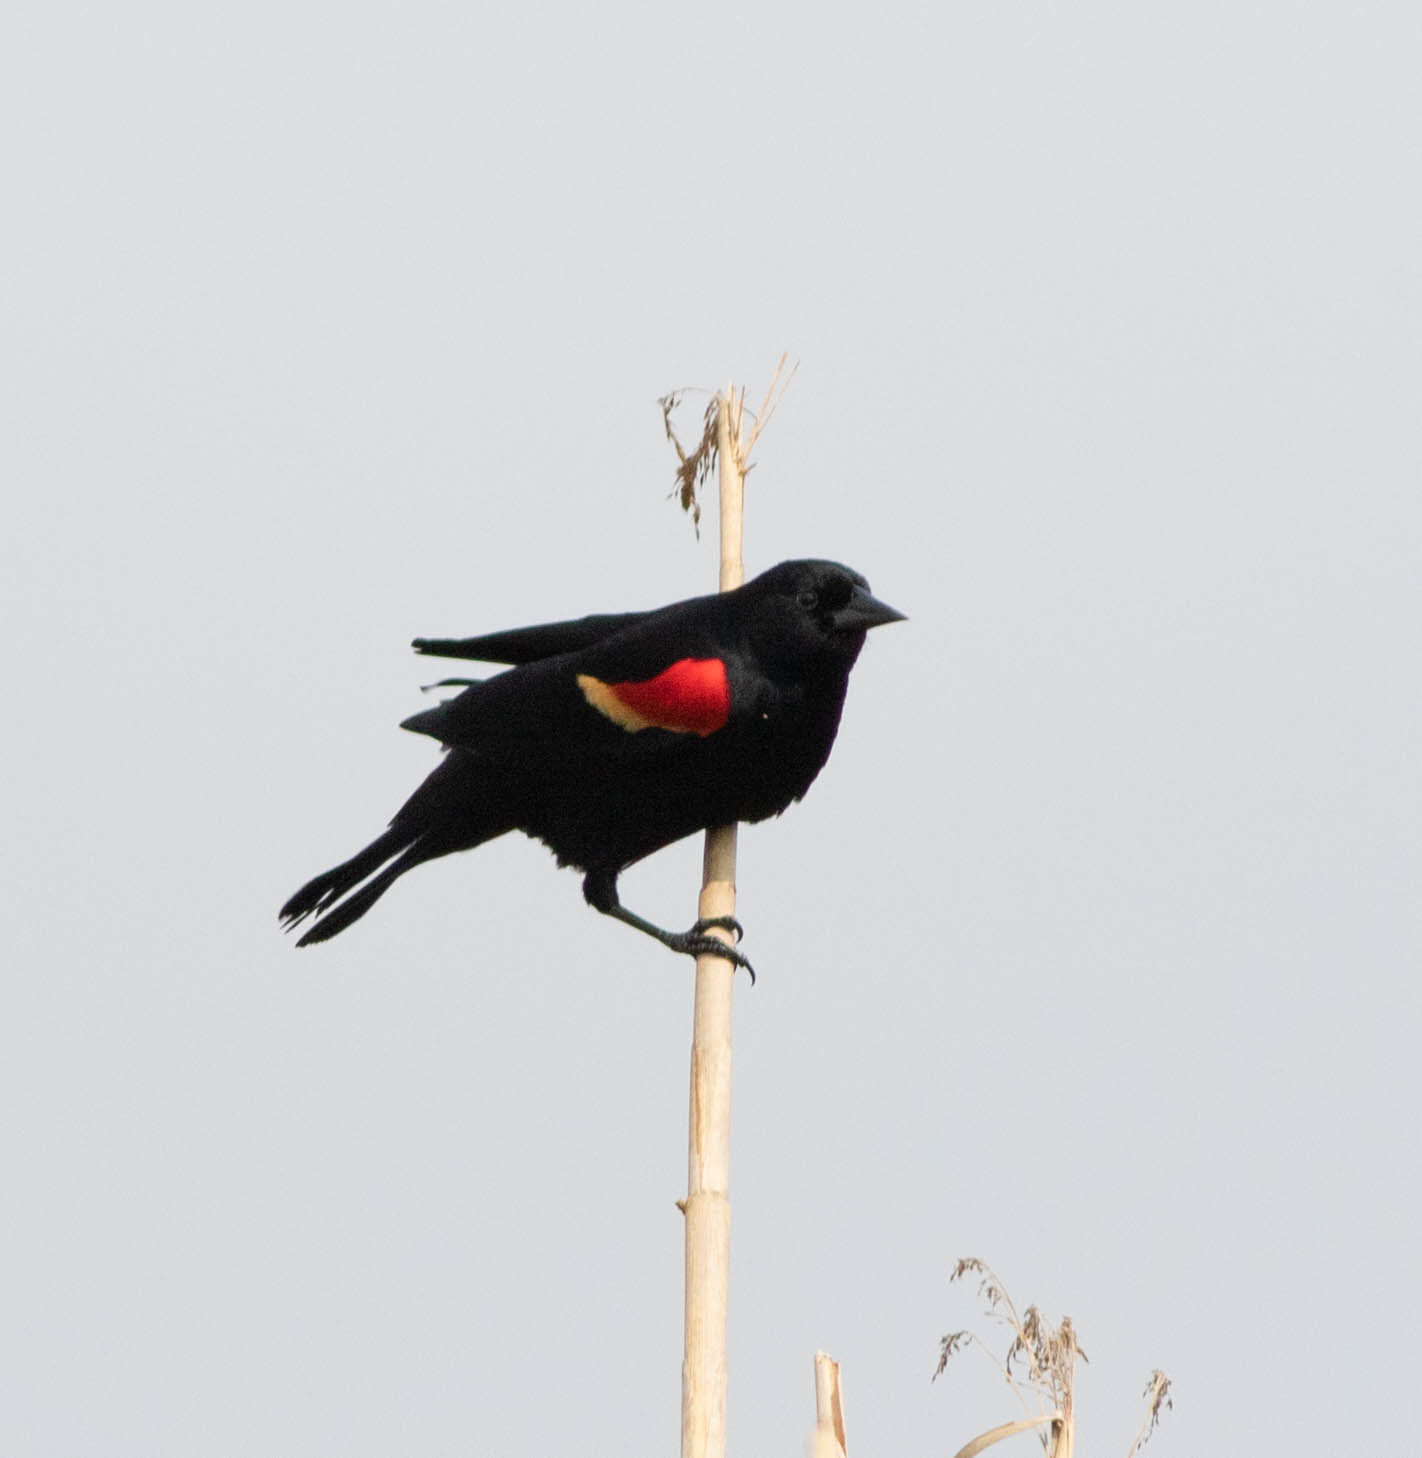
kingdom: Animalia
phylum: Chordata
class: Aves
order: Passeriformes
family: Icteridae
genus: Agelaius
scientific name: Agelaius phoeniceus
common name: Red-winged blackbird
